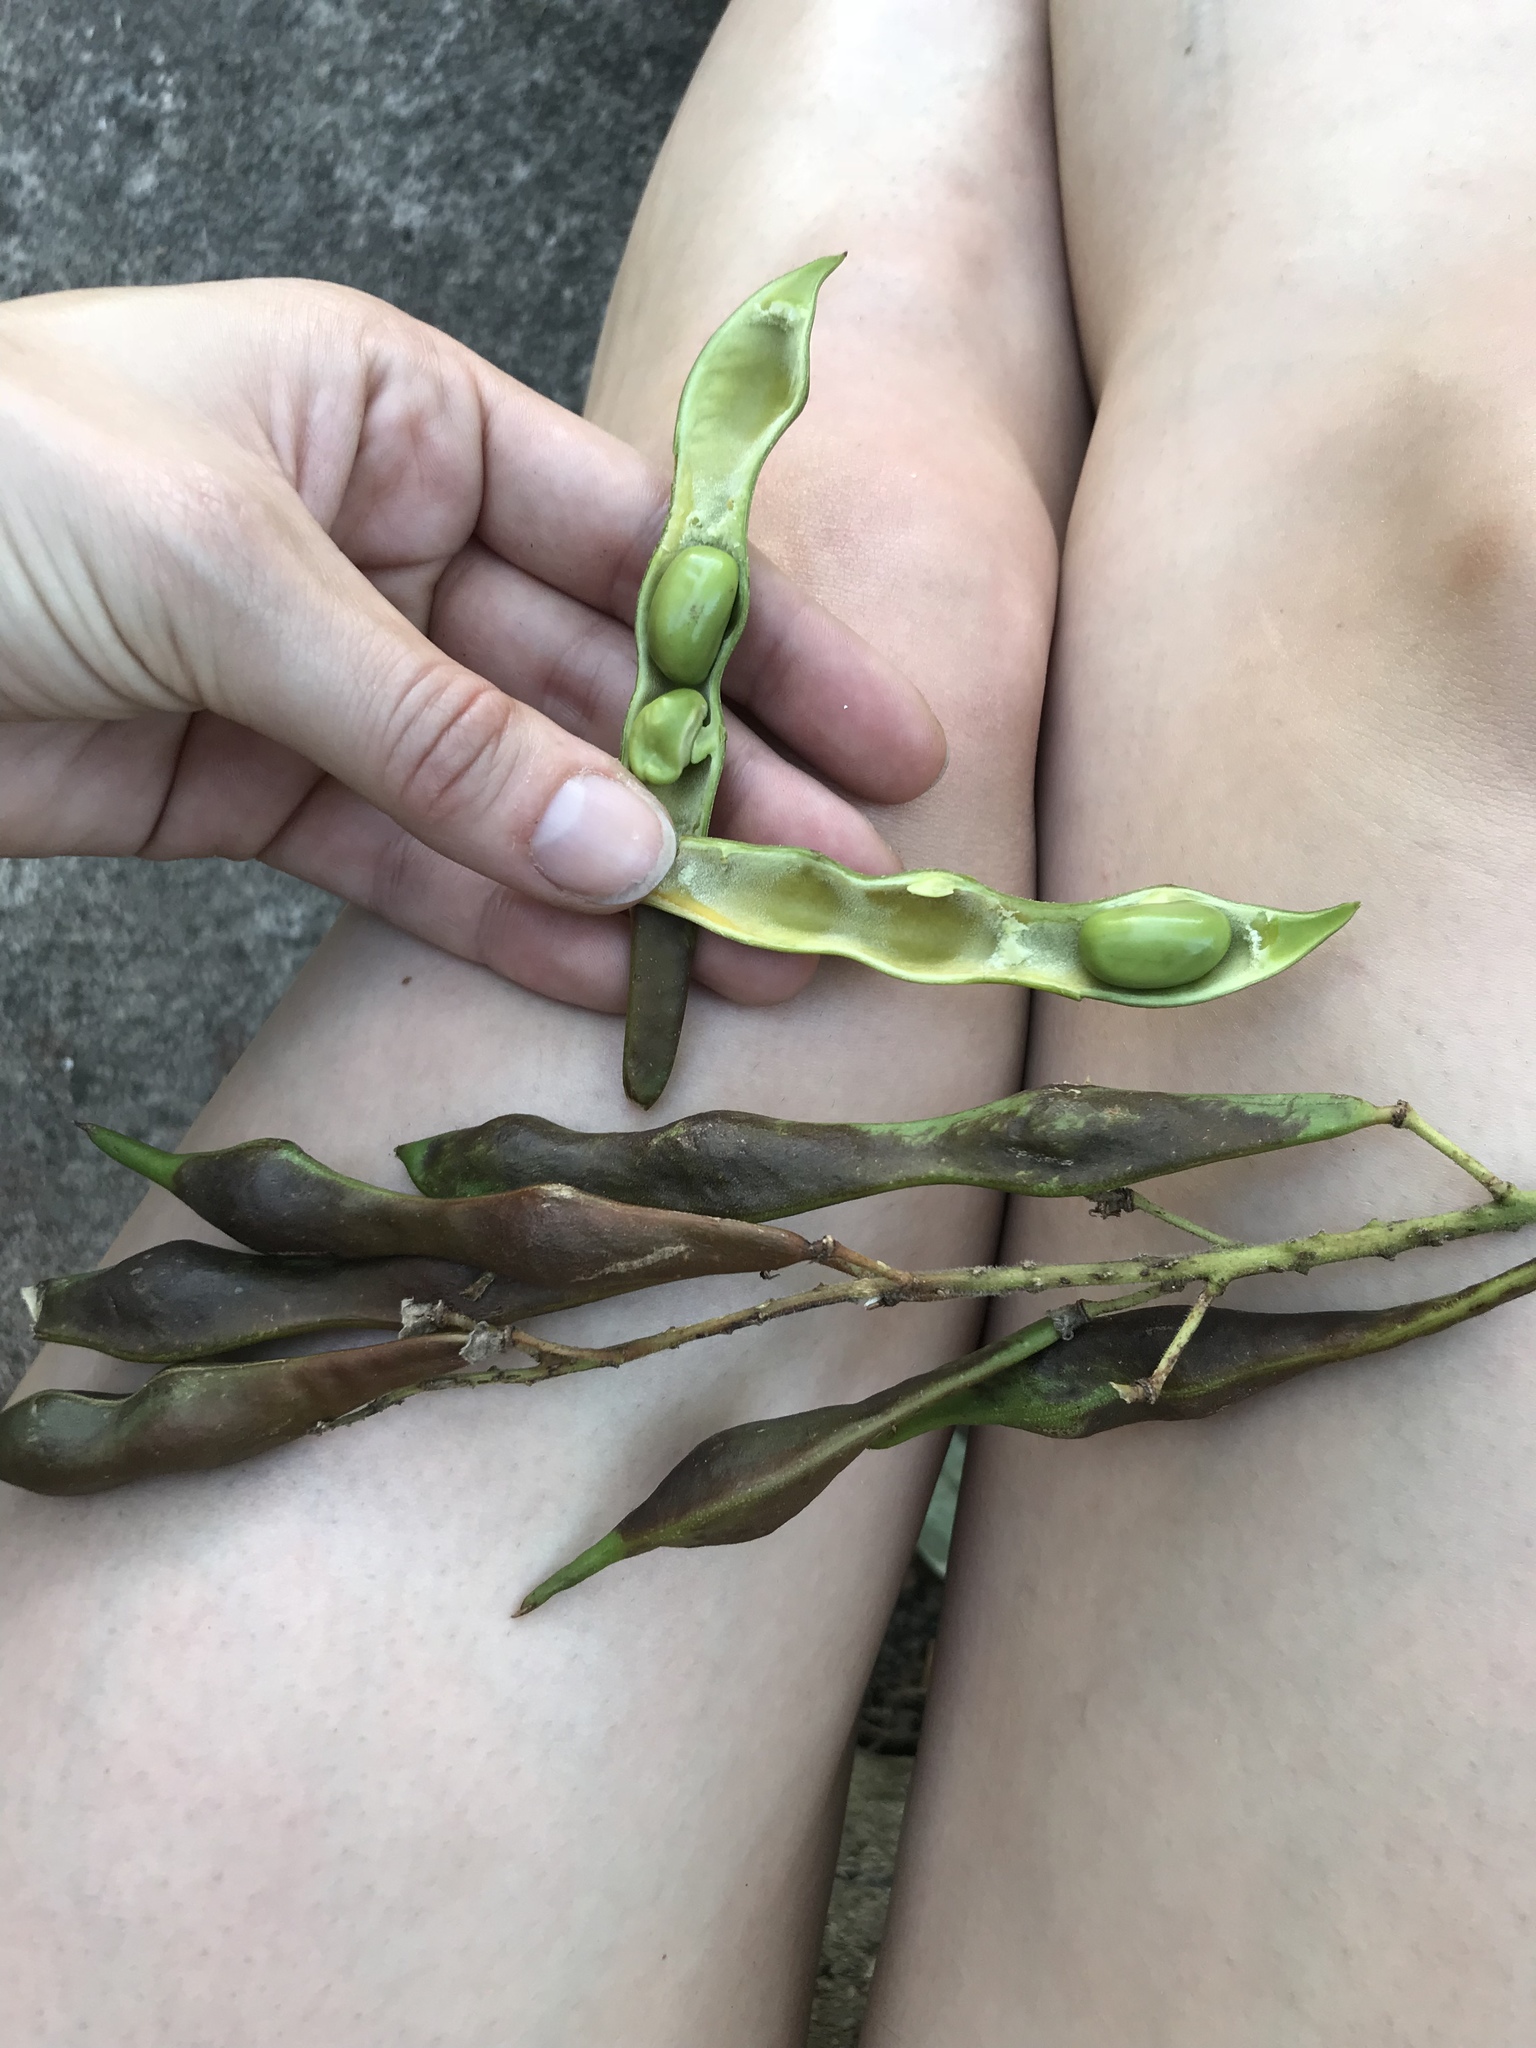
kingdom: Plantae
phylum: Tracheophyta
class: Magnoliopsida
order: Fabales
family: Fabaceae
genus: Styphnolobium
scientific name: Styphnolobium japonicum
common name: Chinese scholartree
